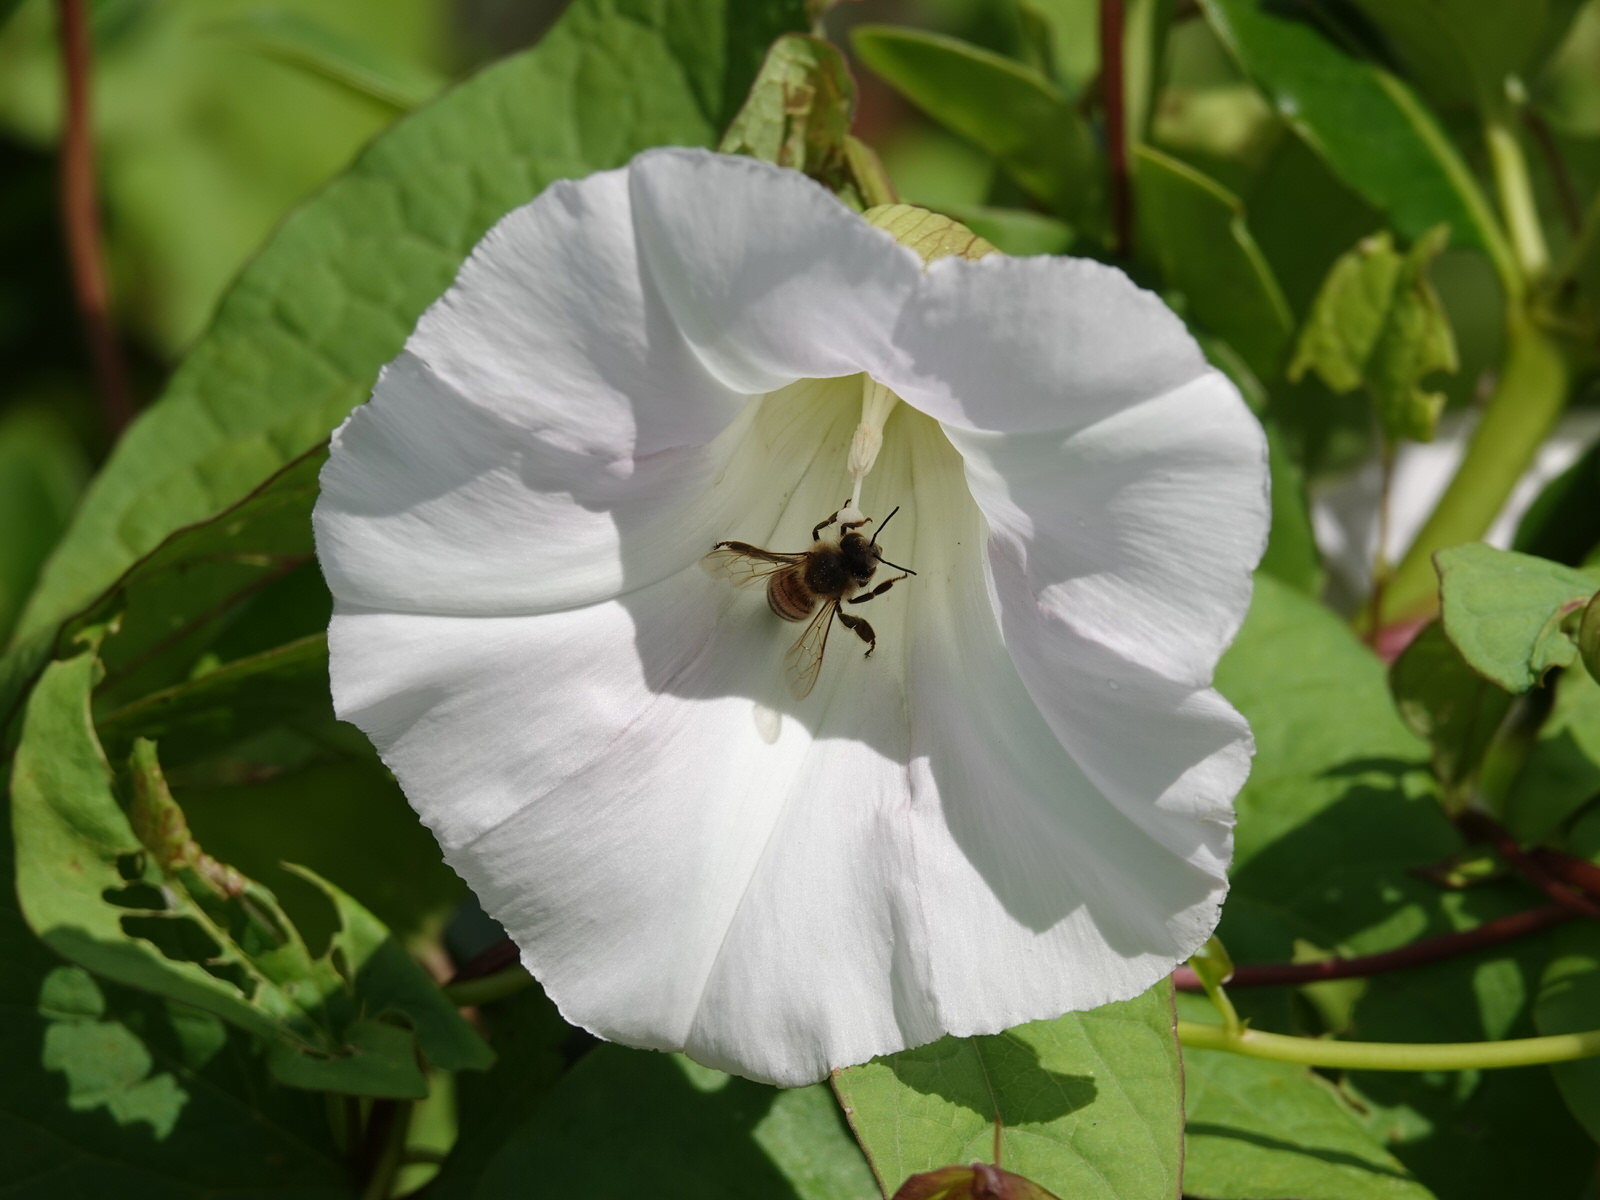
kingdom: Plantae
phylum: Tracheophyta
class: Magnoliopsida
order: Solanales
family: Convolvulaceae
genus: Calystegia
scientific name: Calystegia sepium
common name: Hedge bindweed
